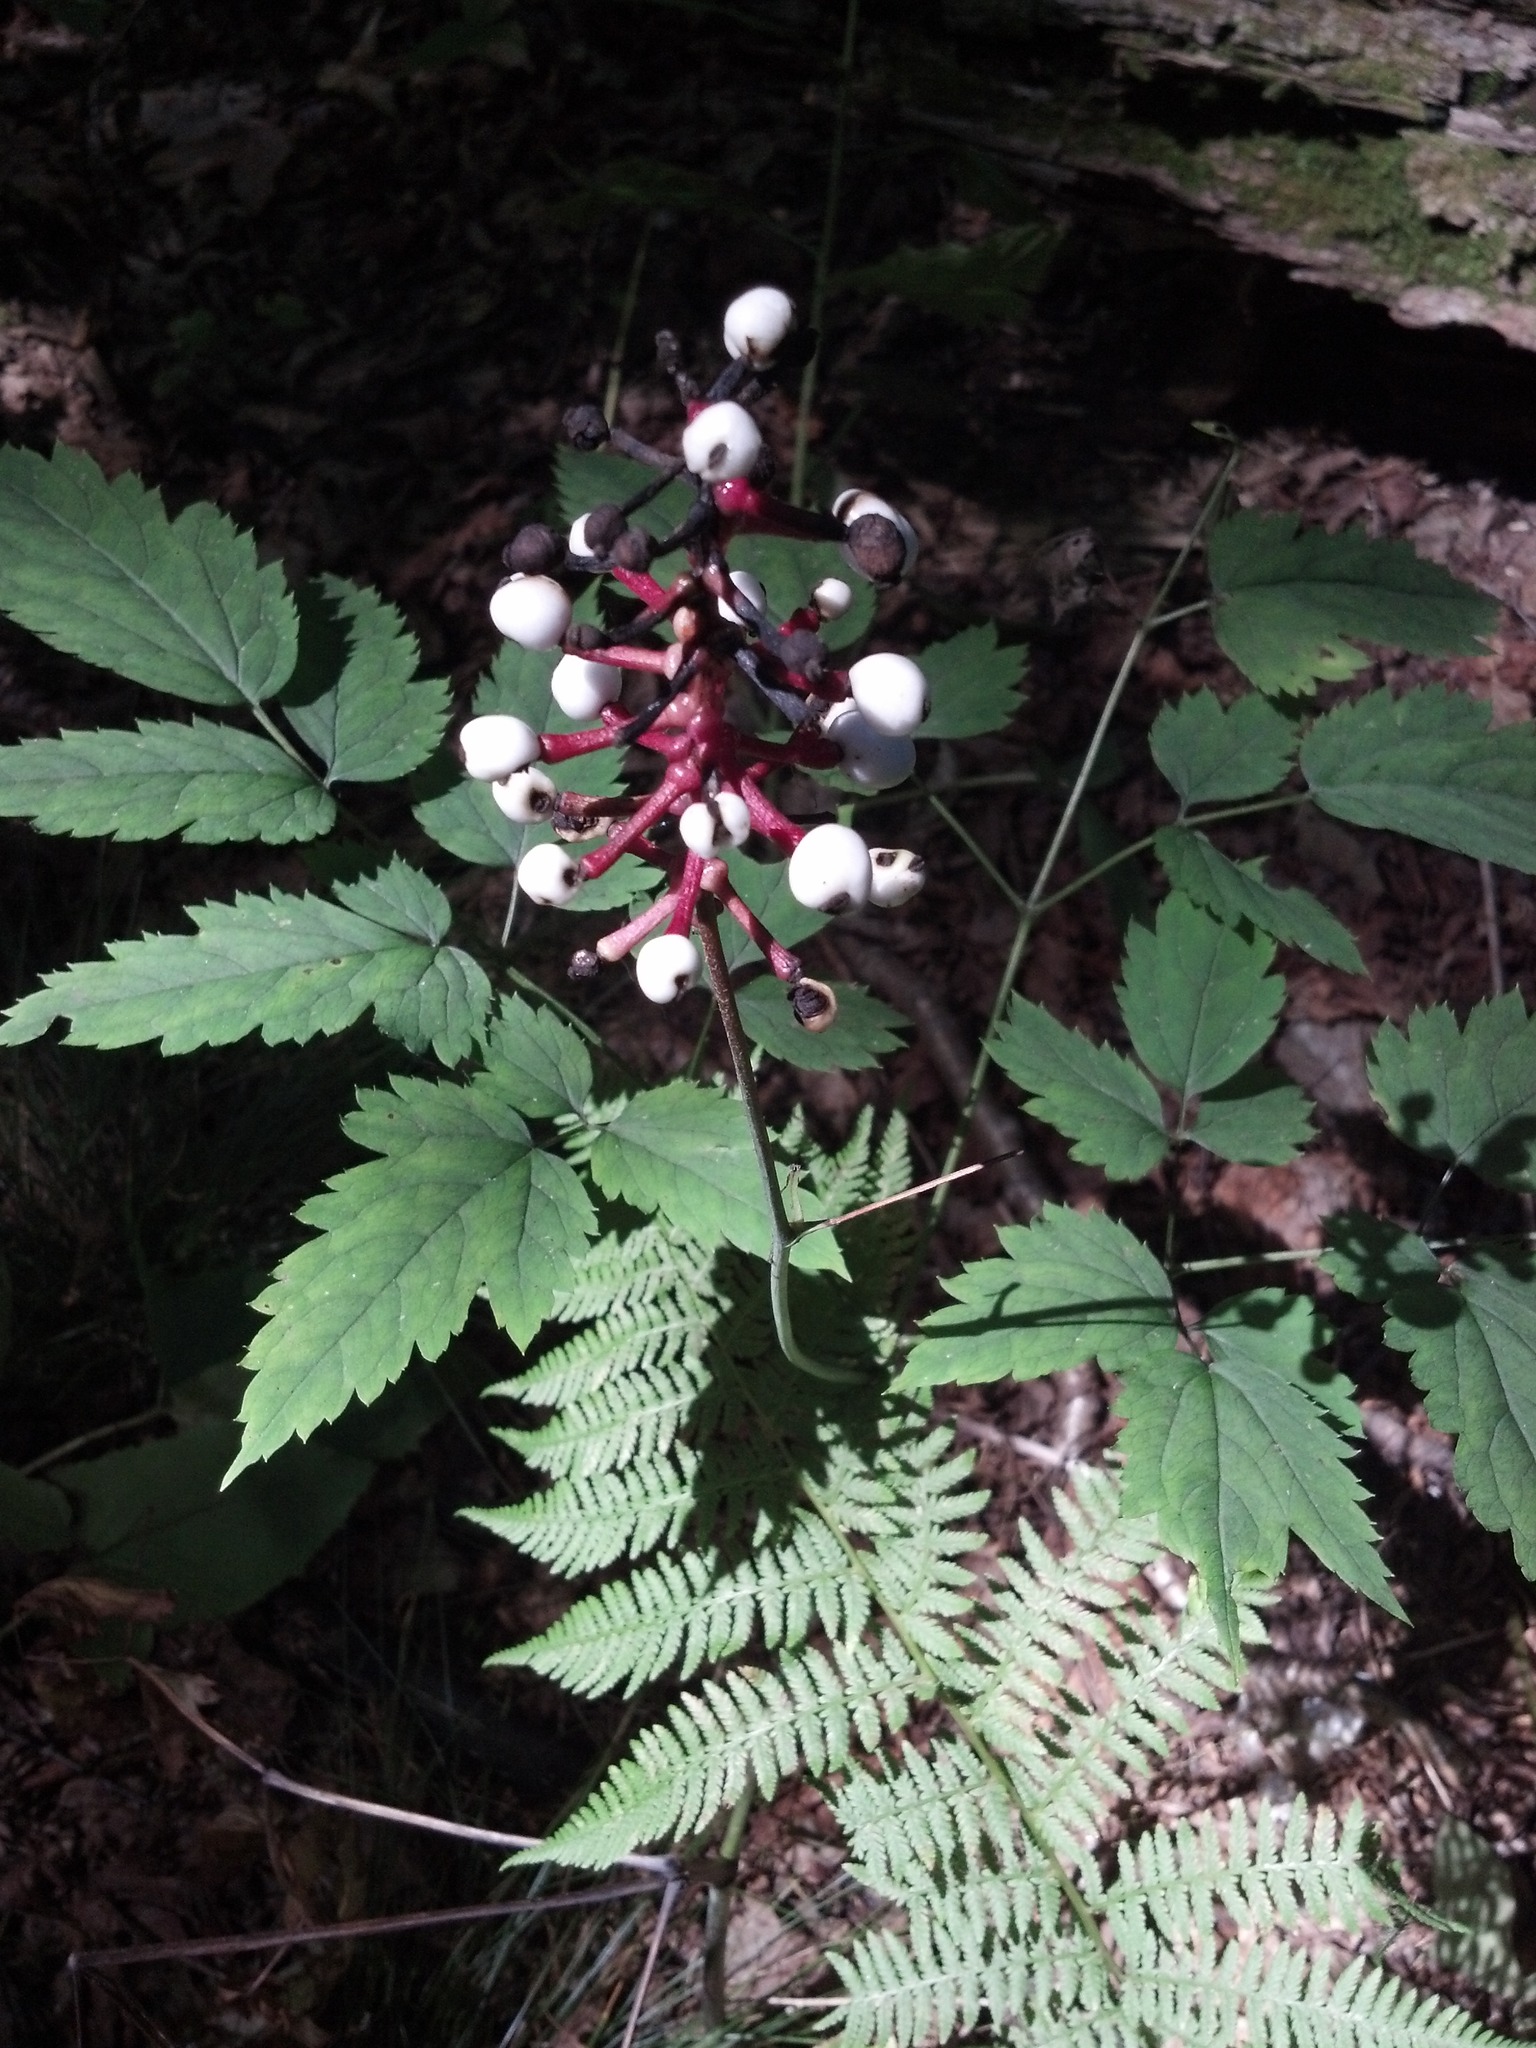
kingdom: Plantae
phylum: Tracheophyta
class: Magnoliopsida
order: Ranunculales
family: Ranunculaceae
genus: Actaea
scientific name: Actaea pachypoda
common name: Doll's-eyes
